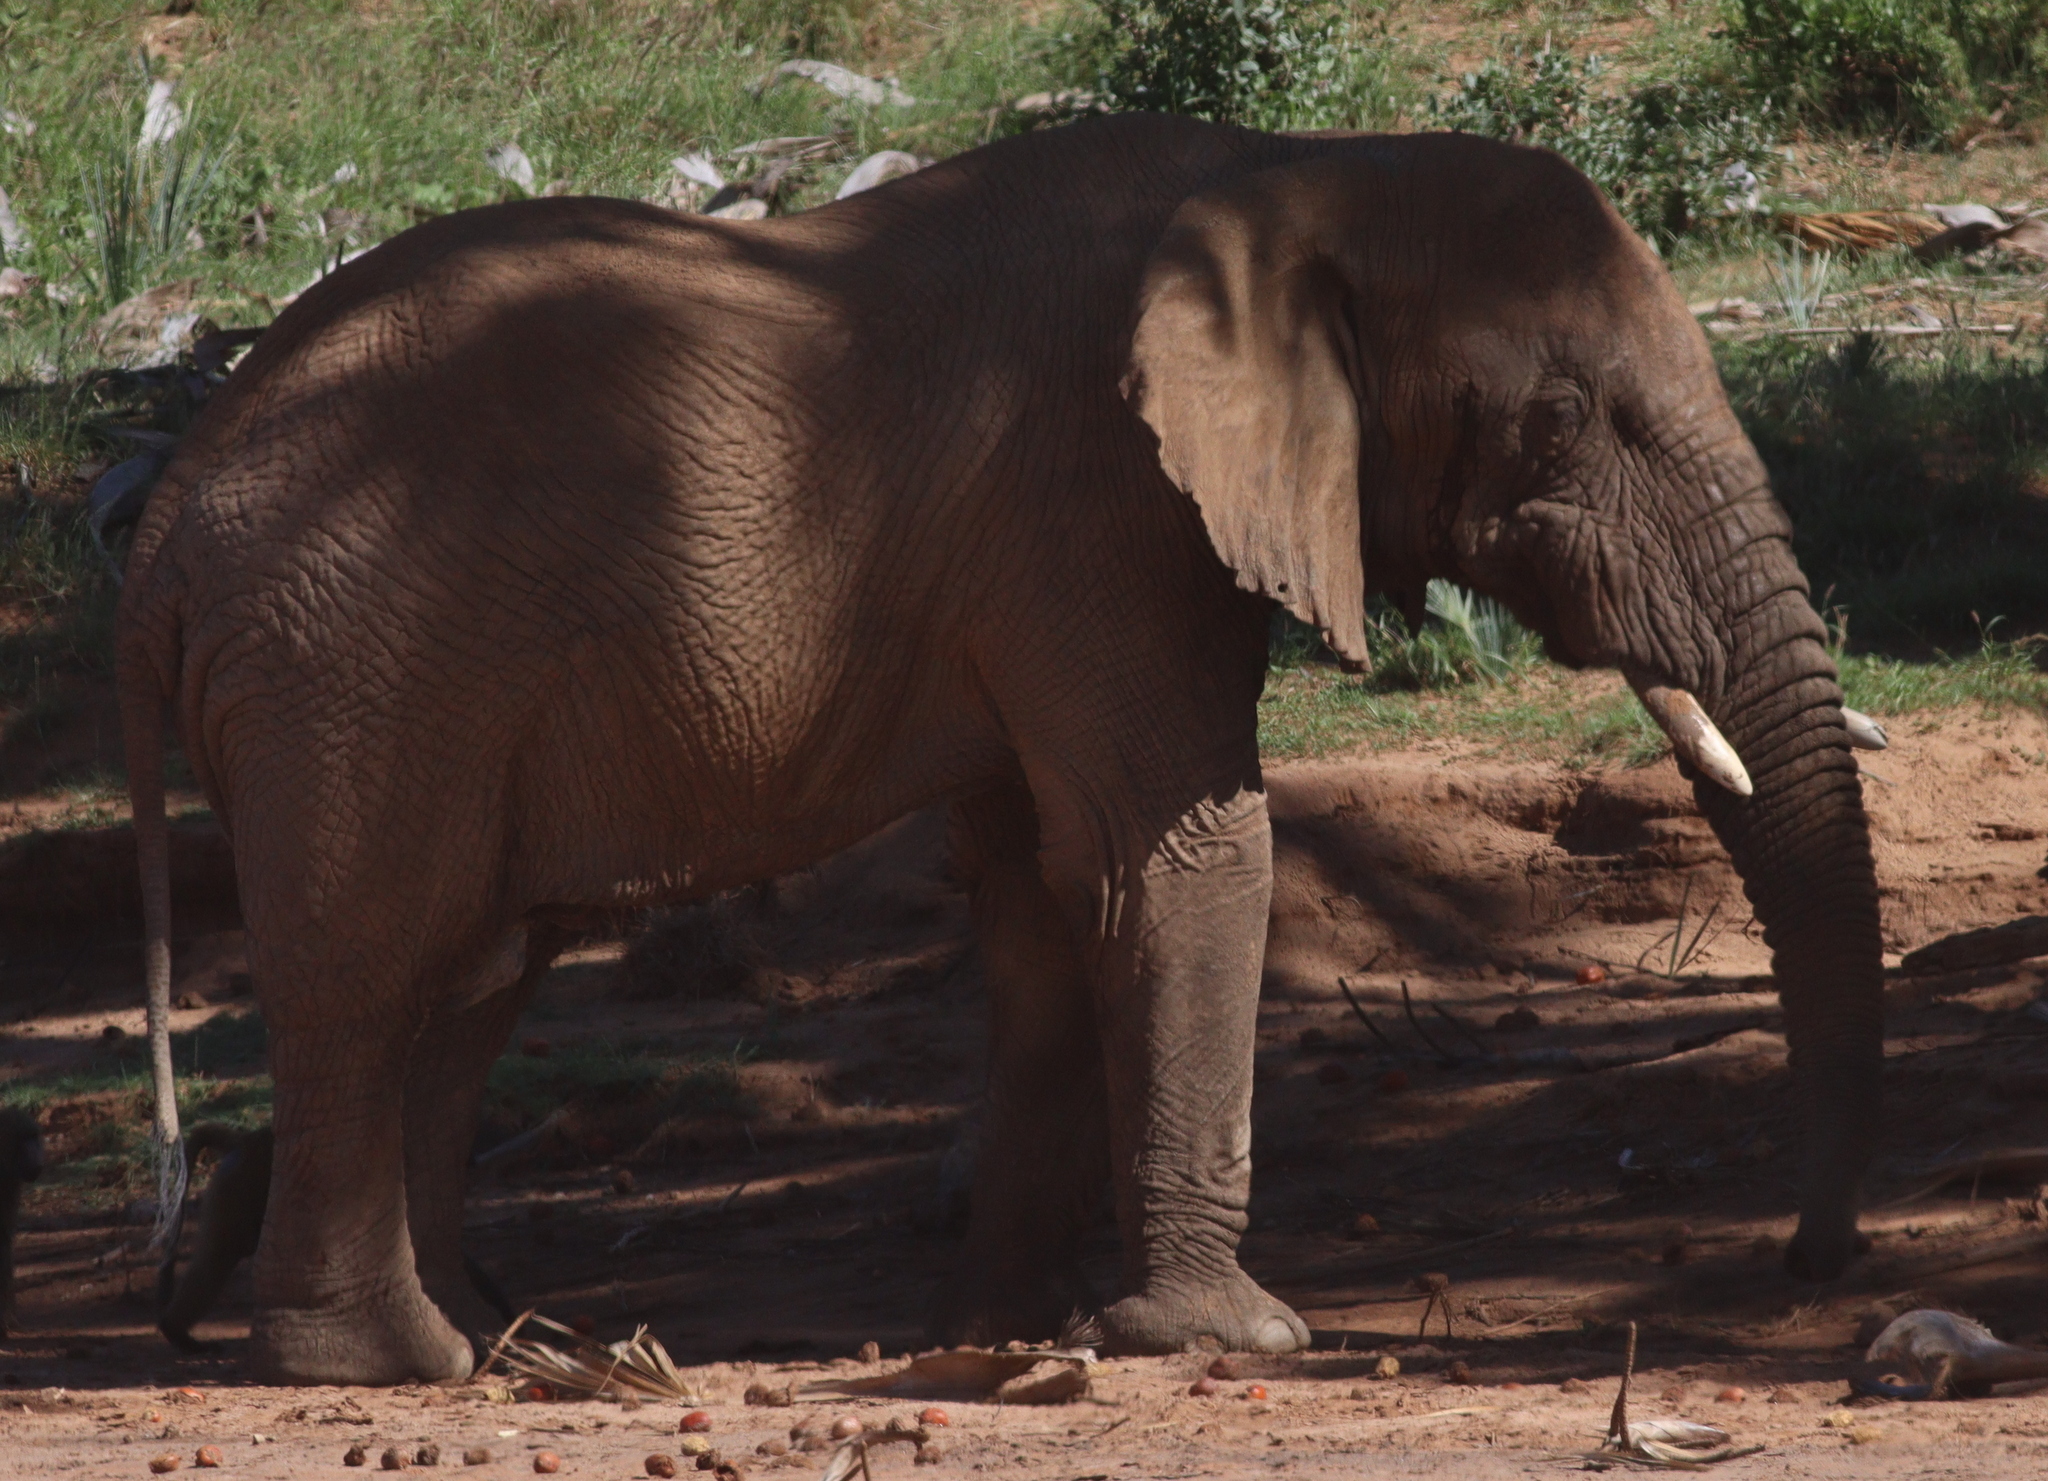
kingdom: Animalia
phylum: Chordata
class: Mammalia
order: Proboscidea
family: Elephantidae
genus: Loxodonta
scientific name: Loxodonta africana
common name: African elephant
